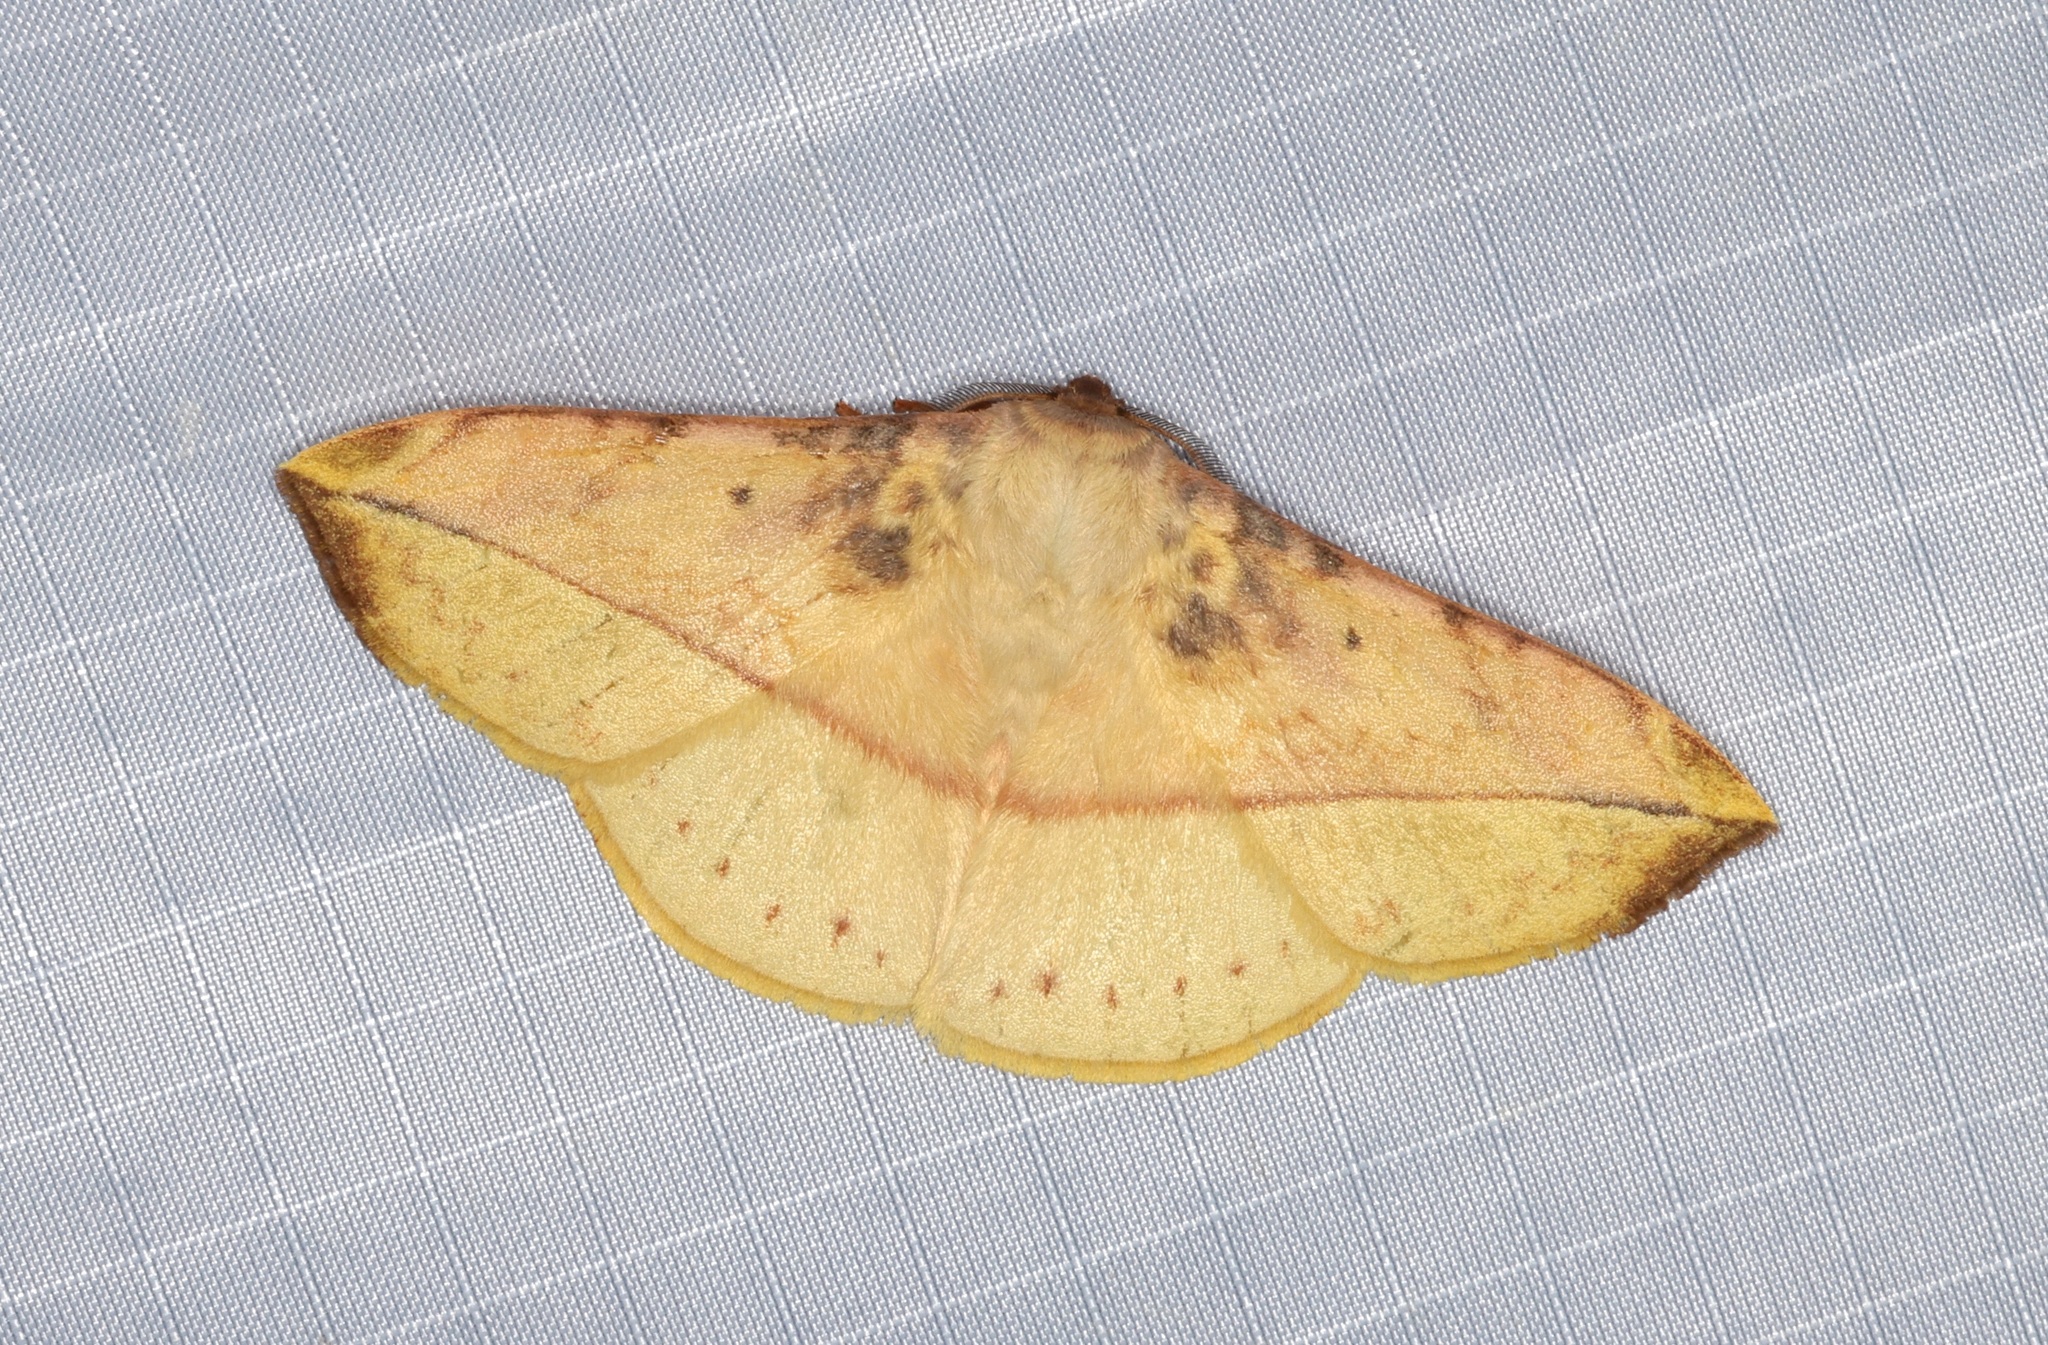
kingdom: Animalia
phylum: Arthropoda
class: Insecta
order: Lepidoptera
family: Eupterotidae
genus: Apha
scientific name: Apha kantonensis
